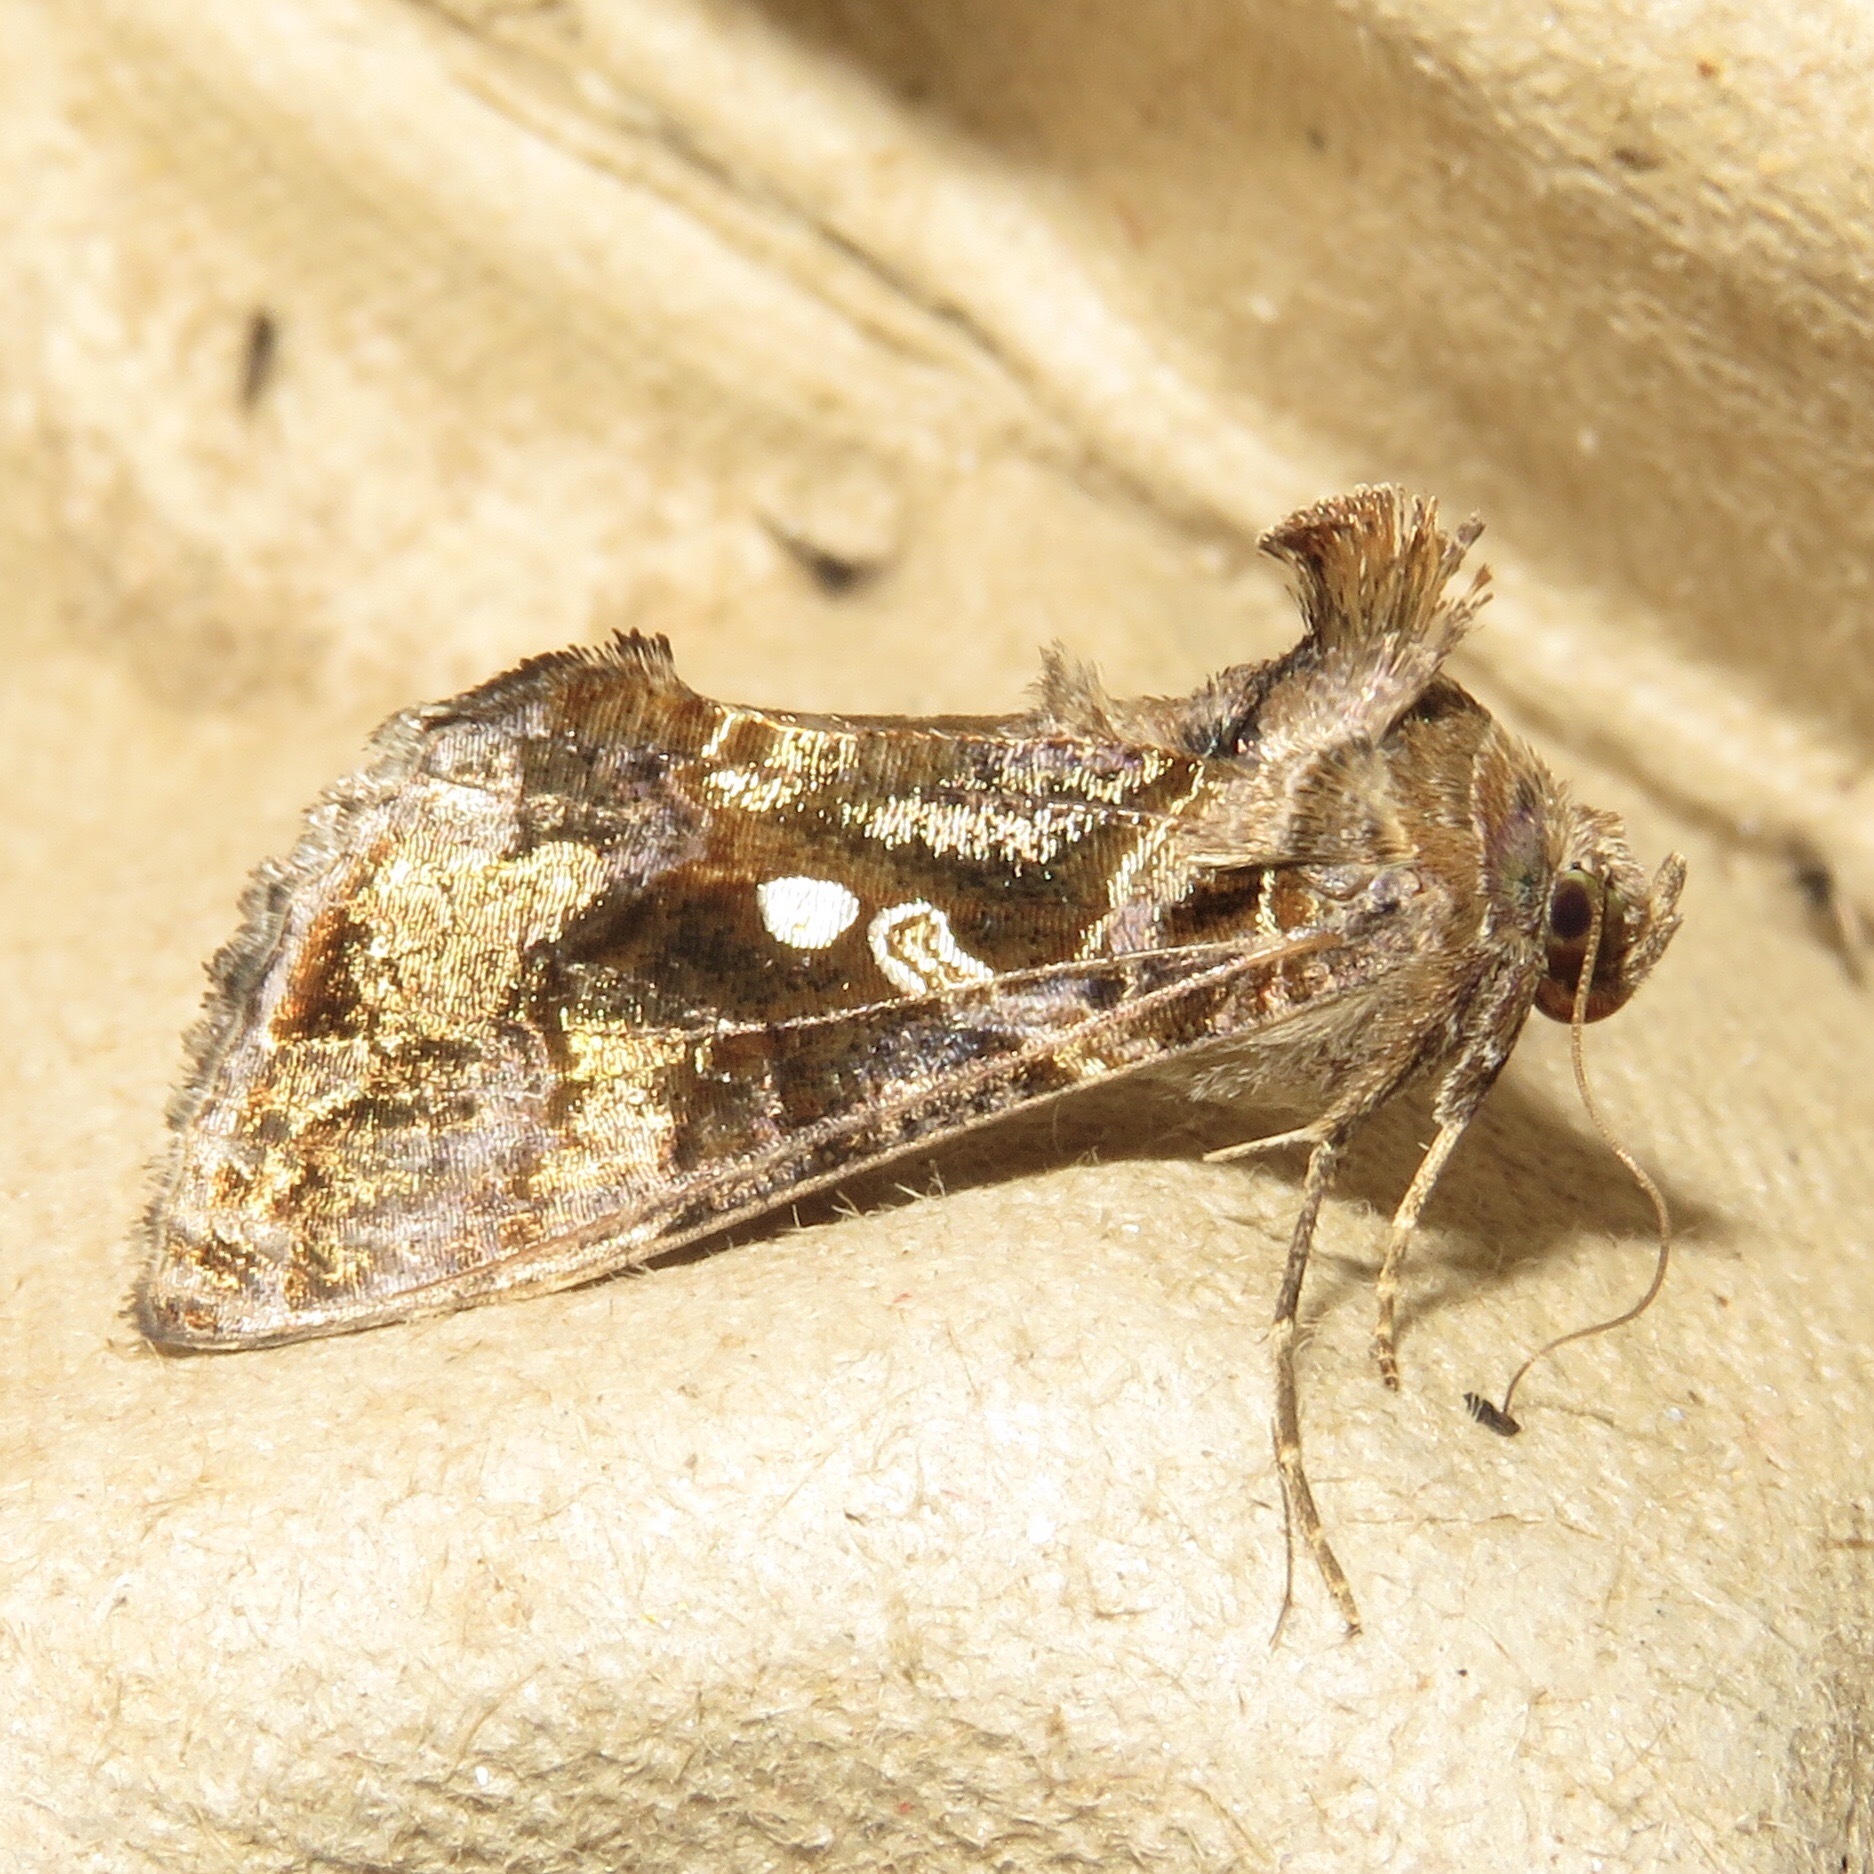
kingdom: Animalia
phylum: Arthropoda
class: Insecta
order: Lepidoptera
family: Noctuidae
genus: Chrysodeixis
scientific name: Chrysodeixis includens
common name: Cutworm moth
